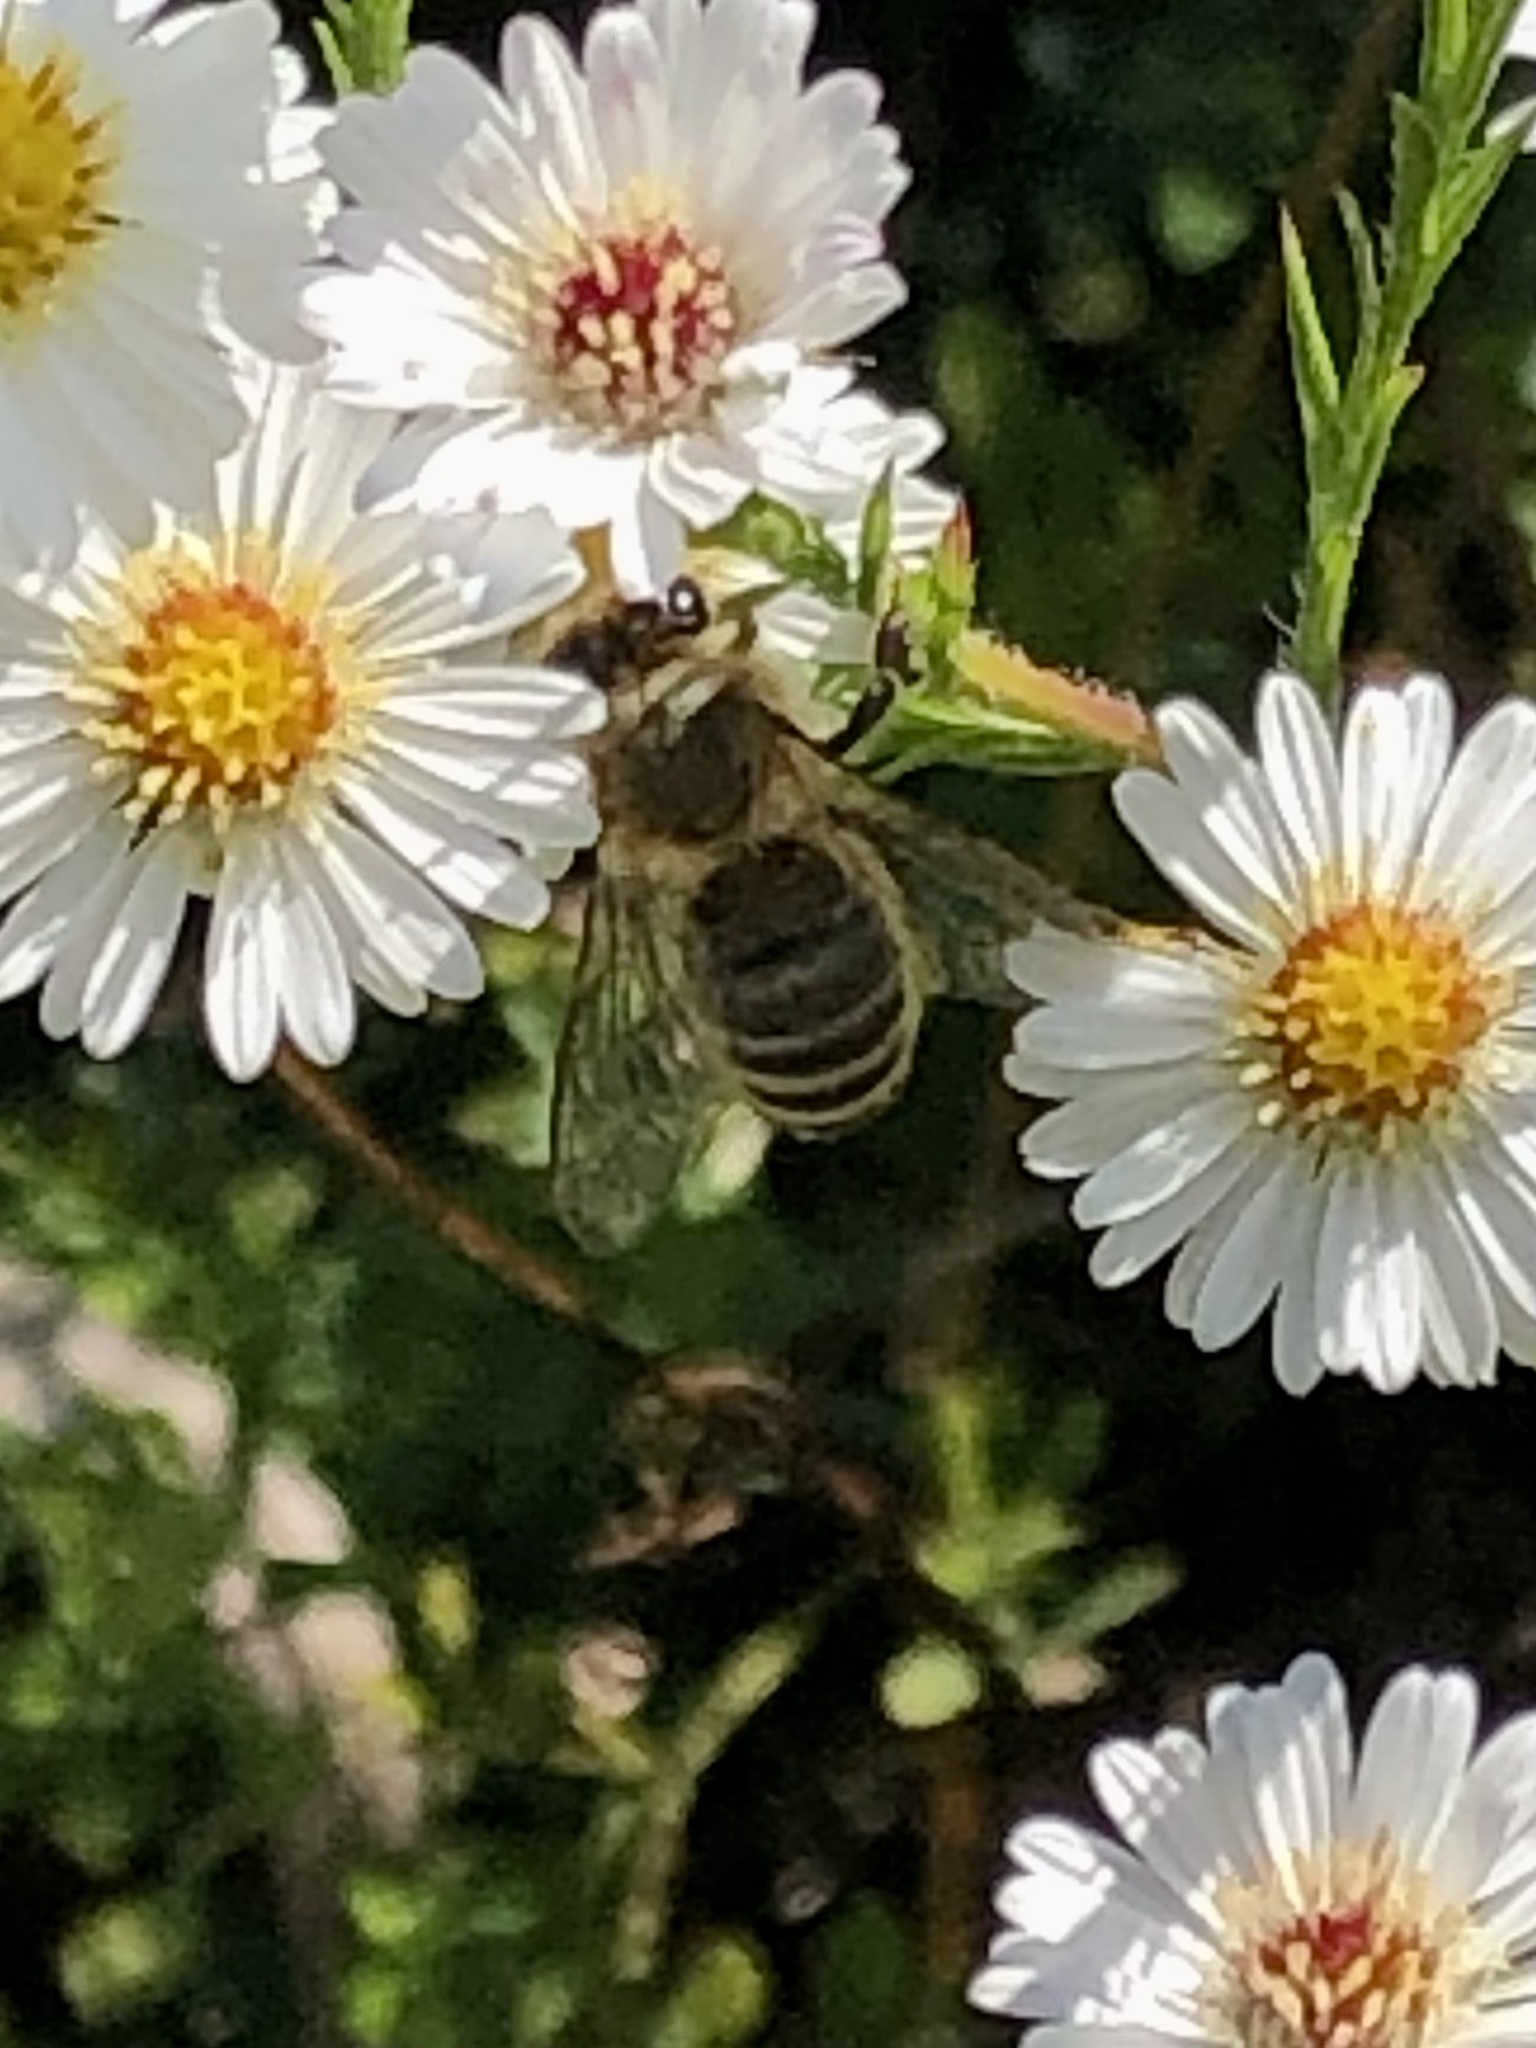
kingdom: Animalia
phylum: Arthropoda
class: Insecta
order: Hymenoptera
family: Apidae
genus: Apis
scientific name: Apis mellifera
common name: Honey bee
